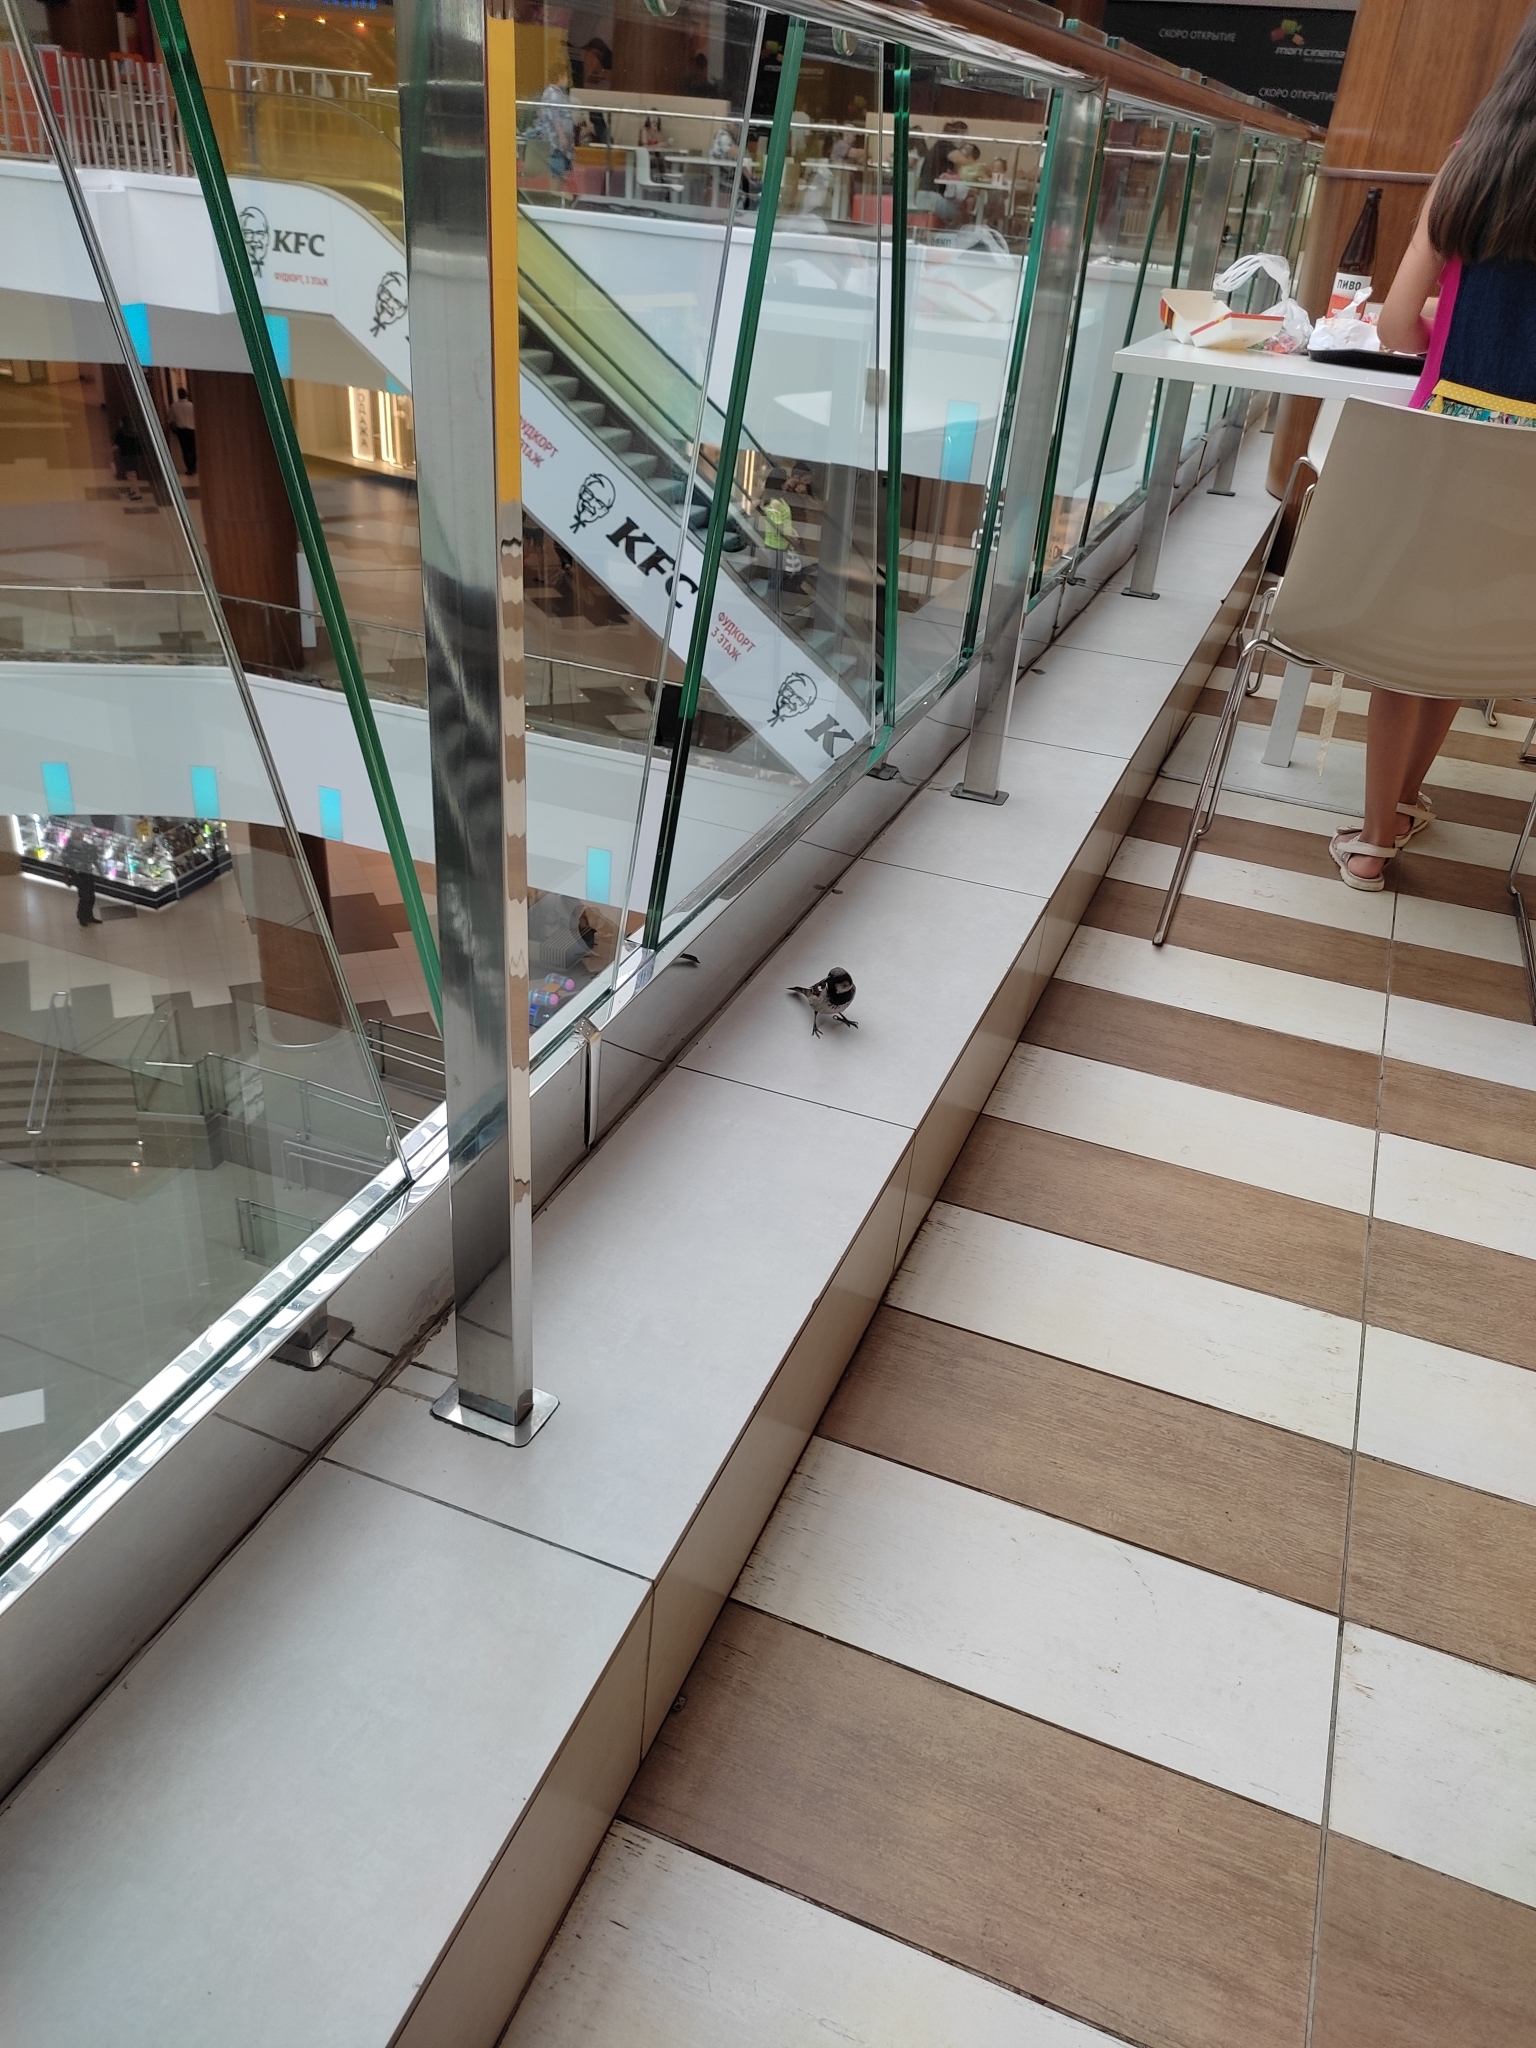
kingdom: Animalia
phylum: Chordata
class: Aves
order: Passeriformes
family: Passeridae
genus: Passer
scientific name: Passer domesticus
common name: House sparrow
